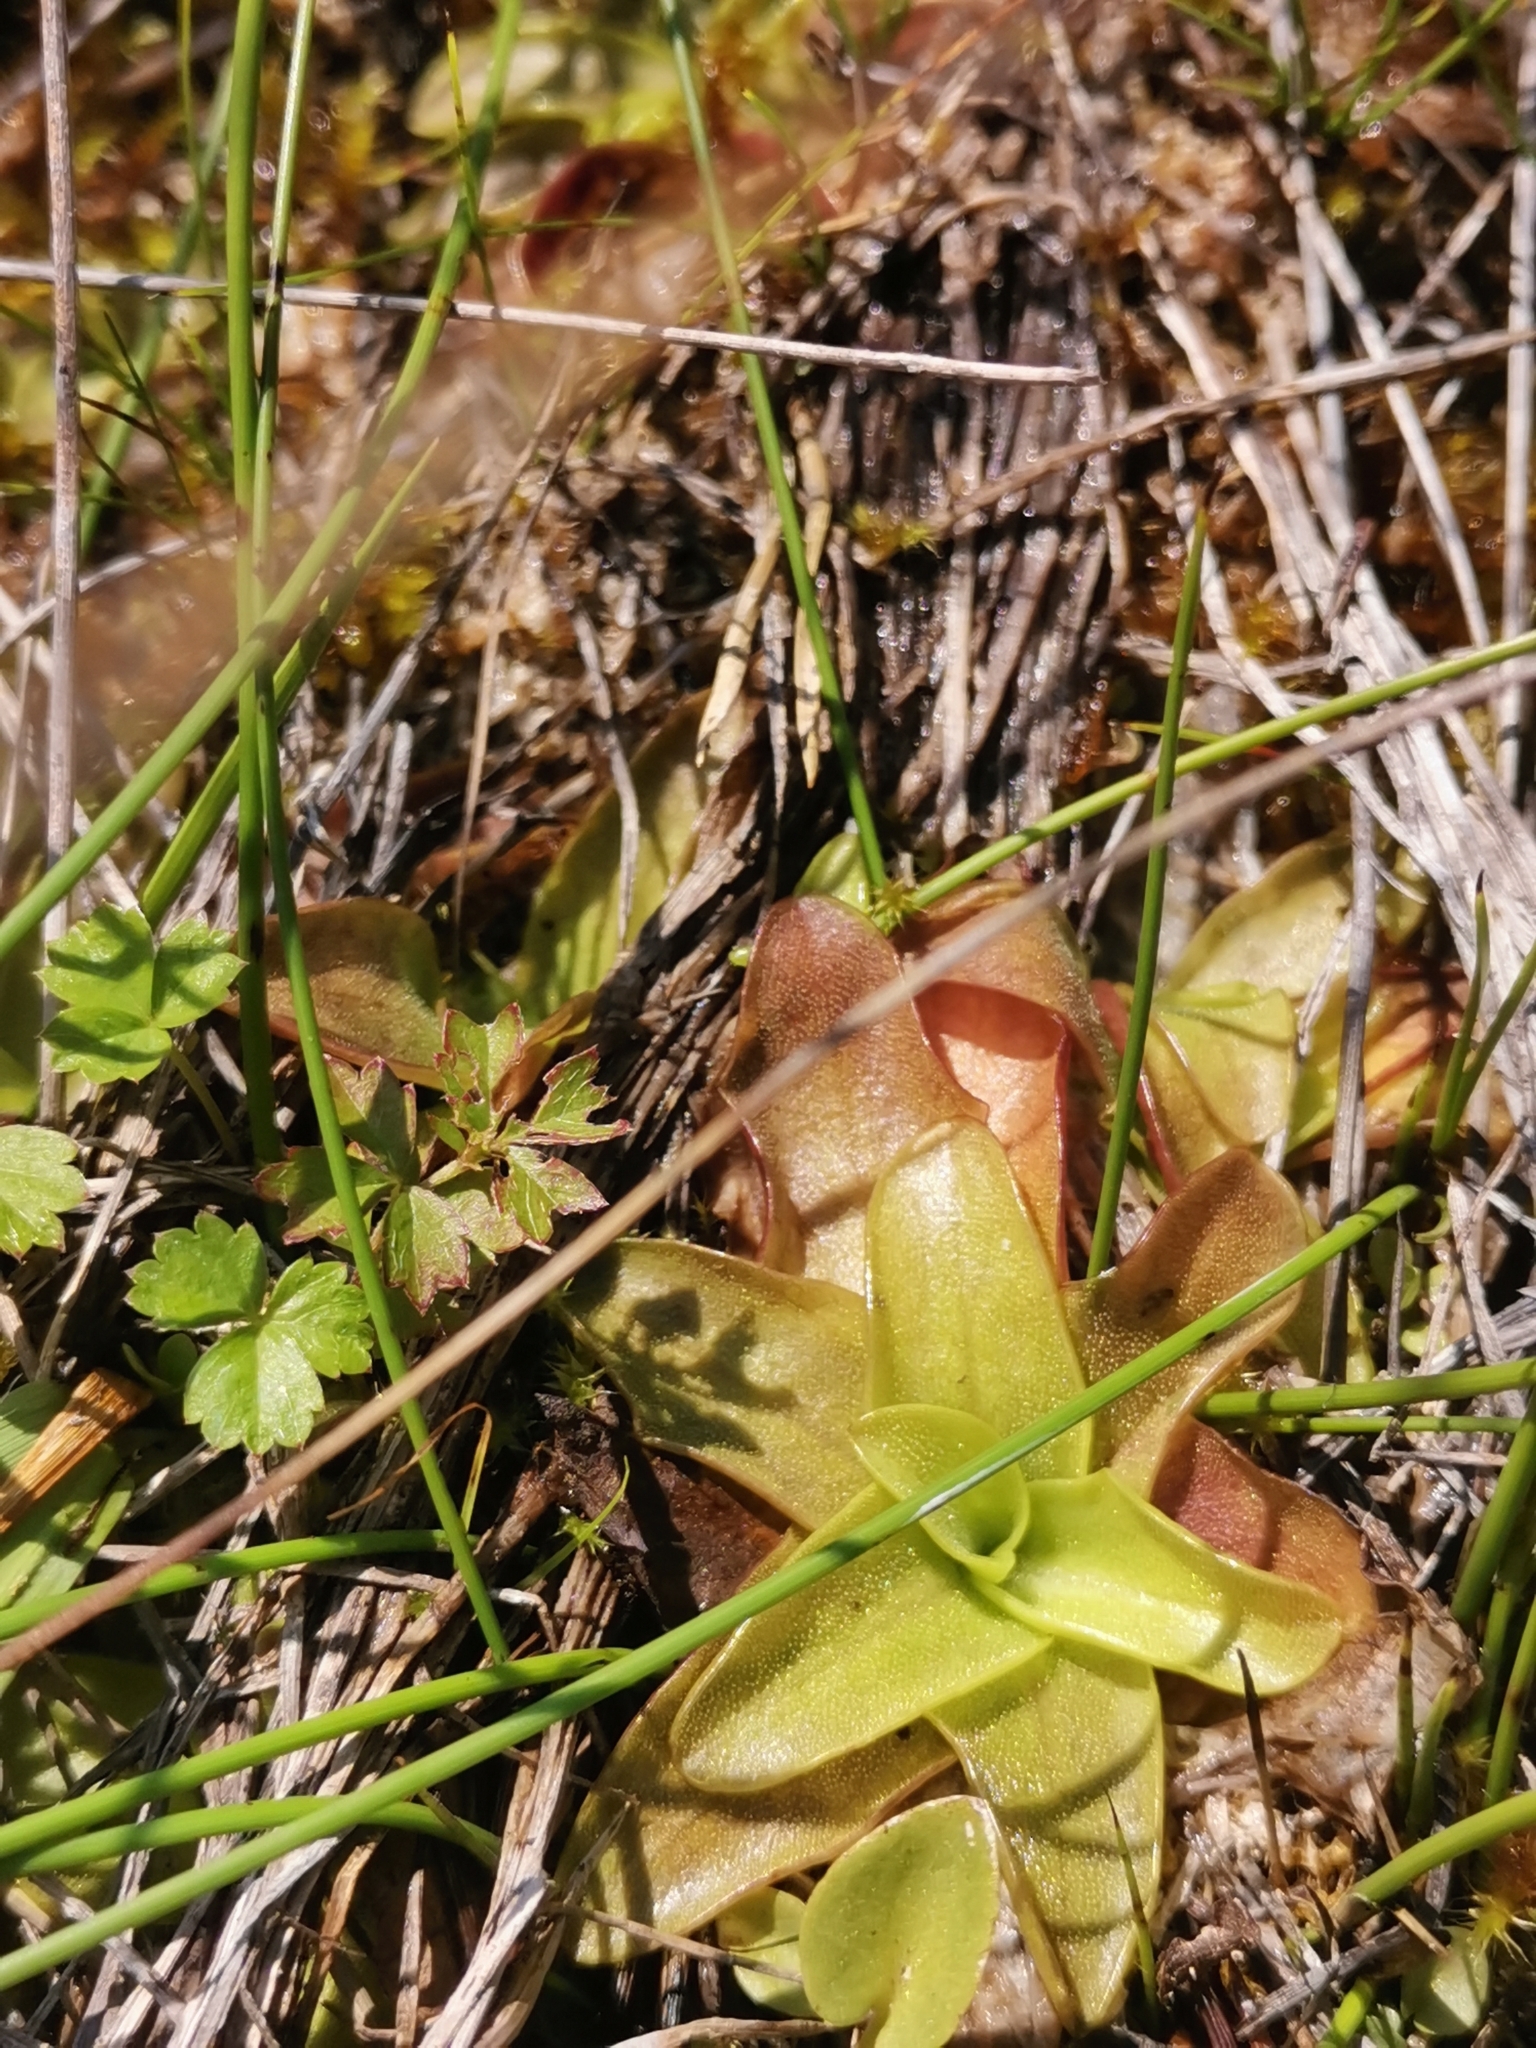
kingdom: Plantae
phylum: Tracheophyta
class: Magnoliopsida
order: Lamiales
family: Lentibulariaceae
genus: Pinguicula
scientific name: Pinguicula alpina
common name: Alpine butterwort
